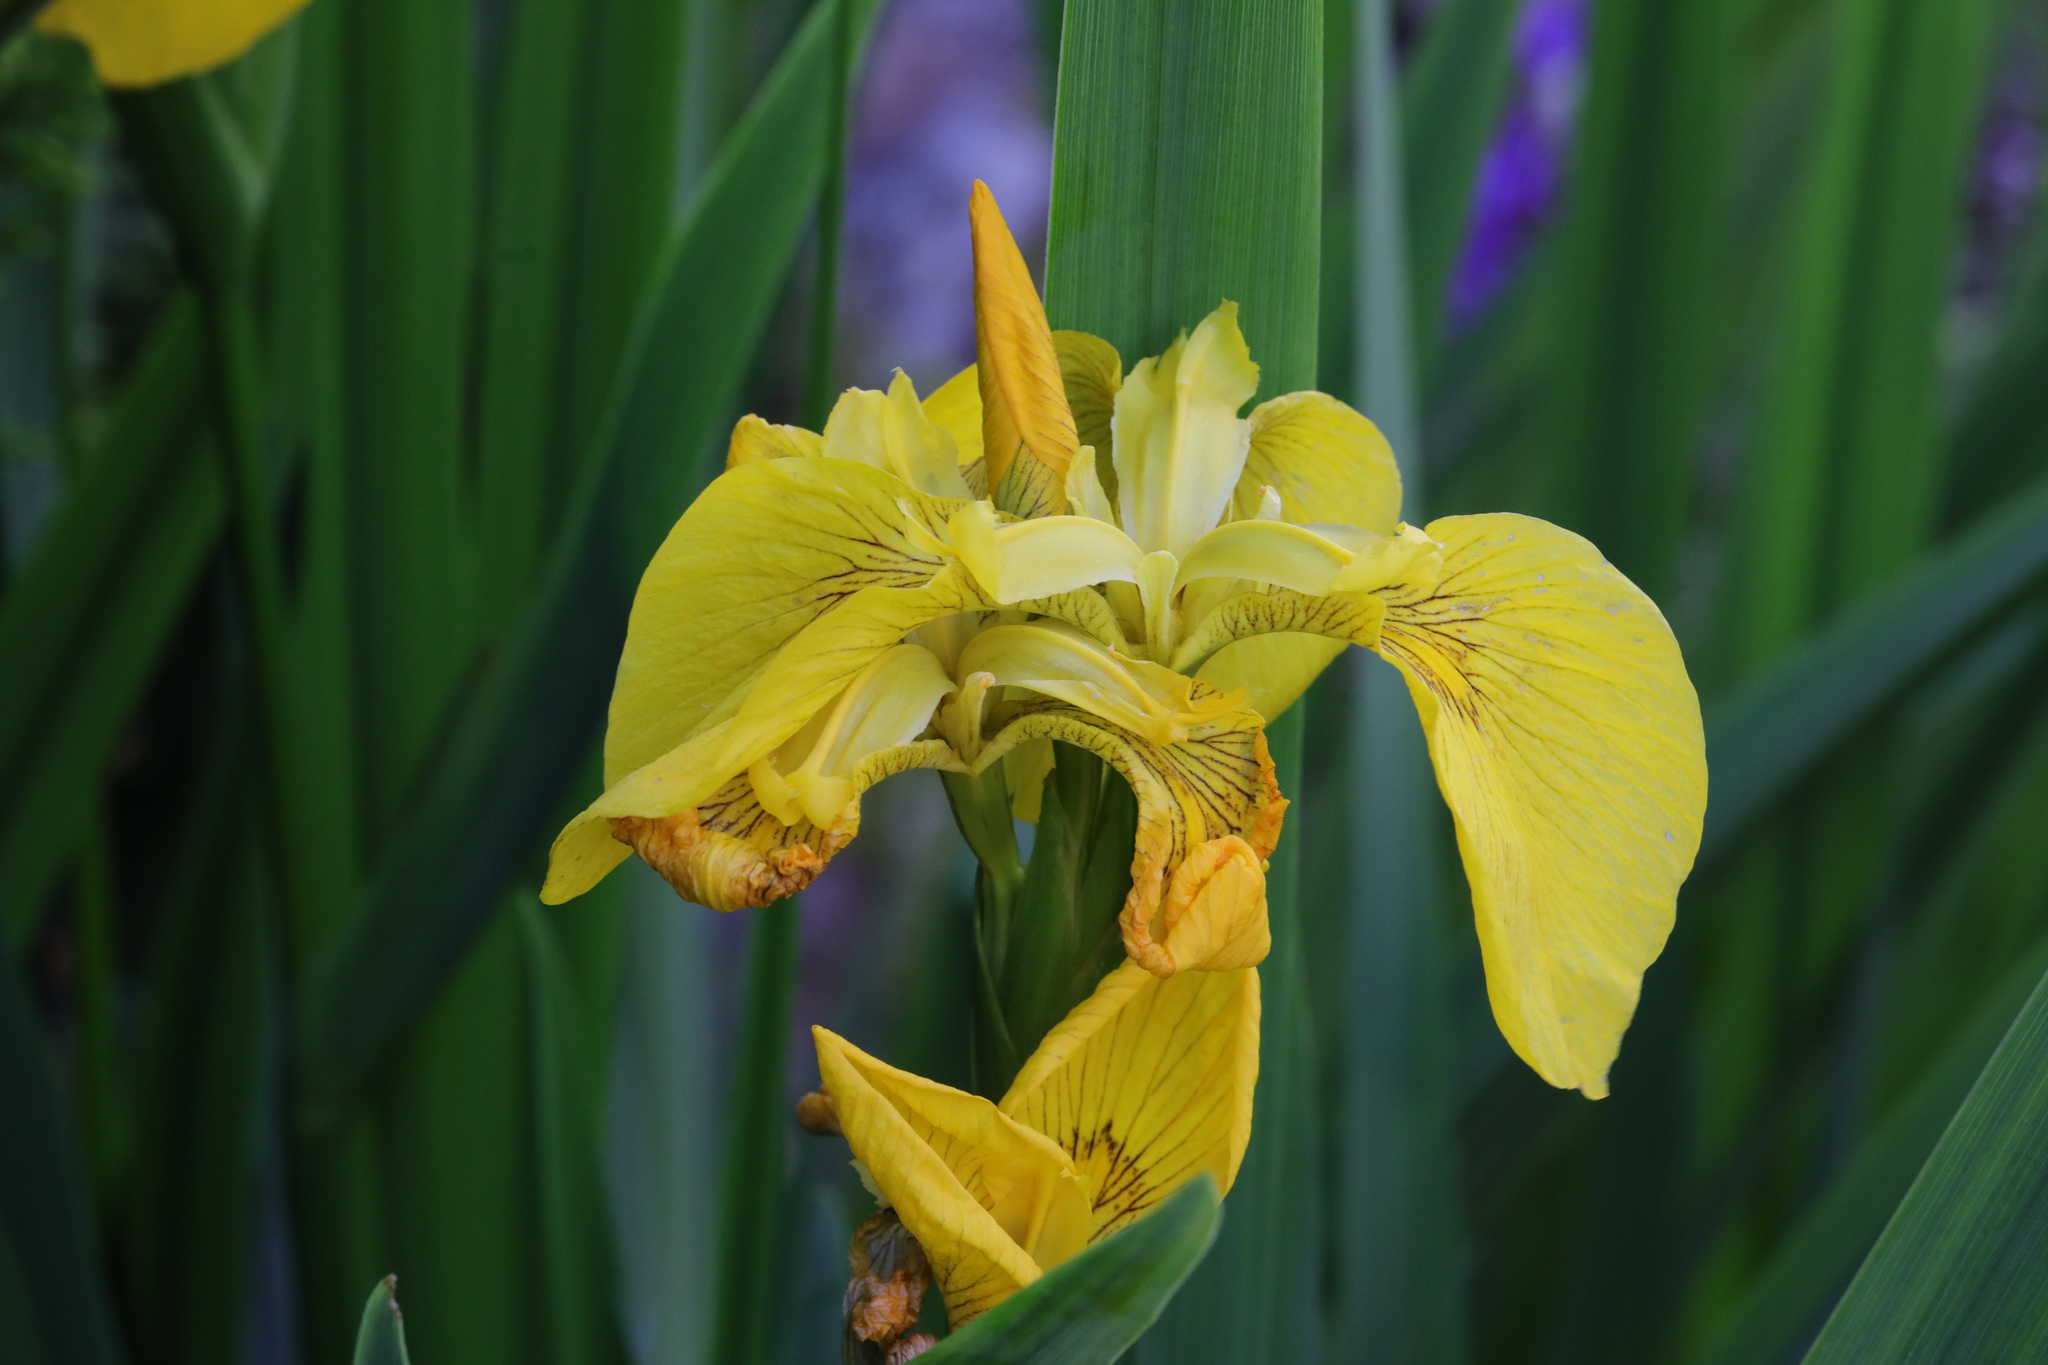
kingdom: Plantae
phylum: Tracheophyta
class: Liliopsida
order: Asparagales
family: Iridaceae
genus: Iris
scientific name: Iris pseudacorus
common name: Yellow flag
